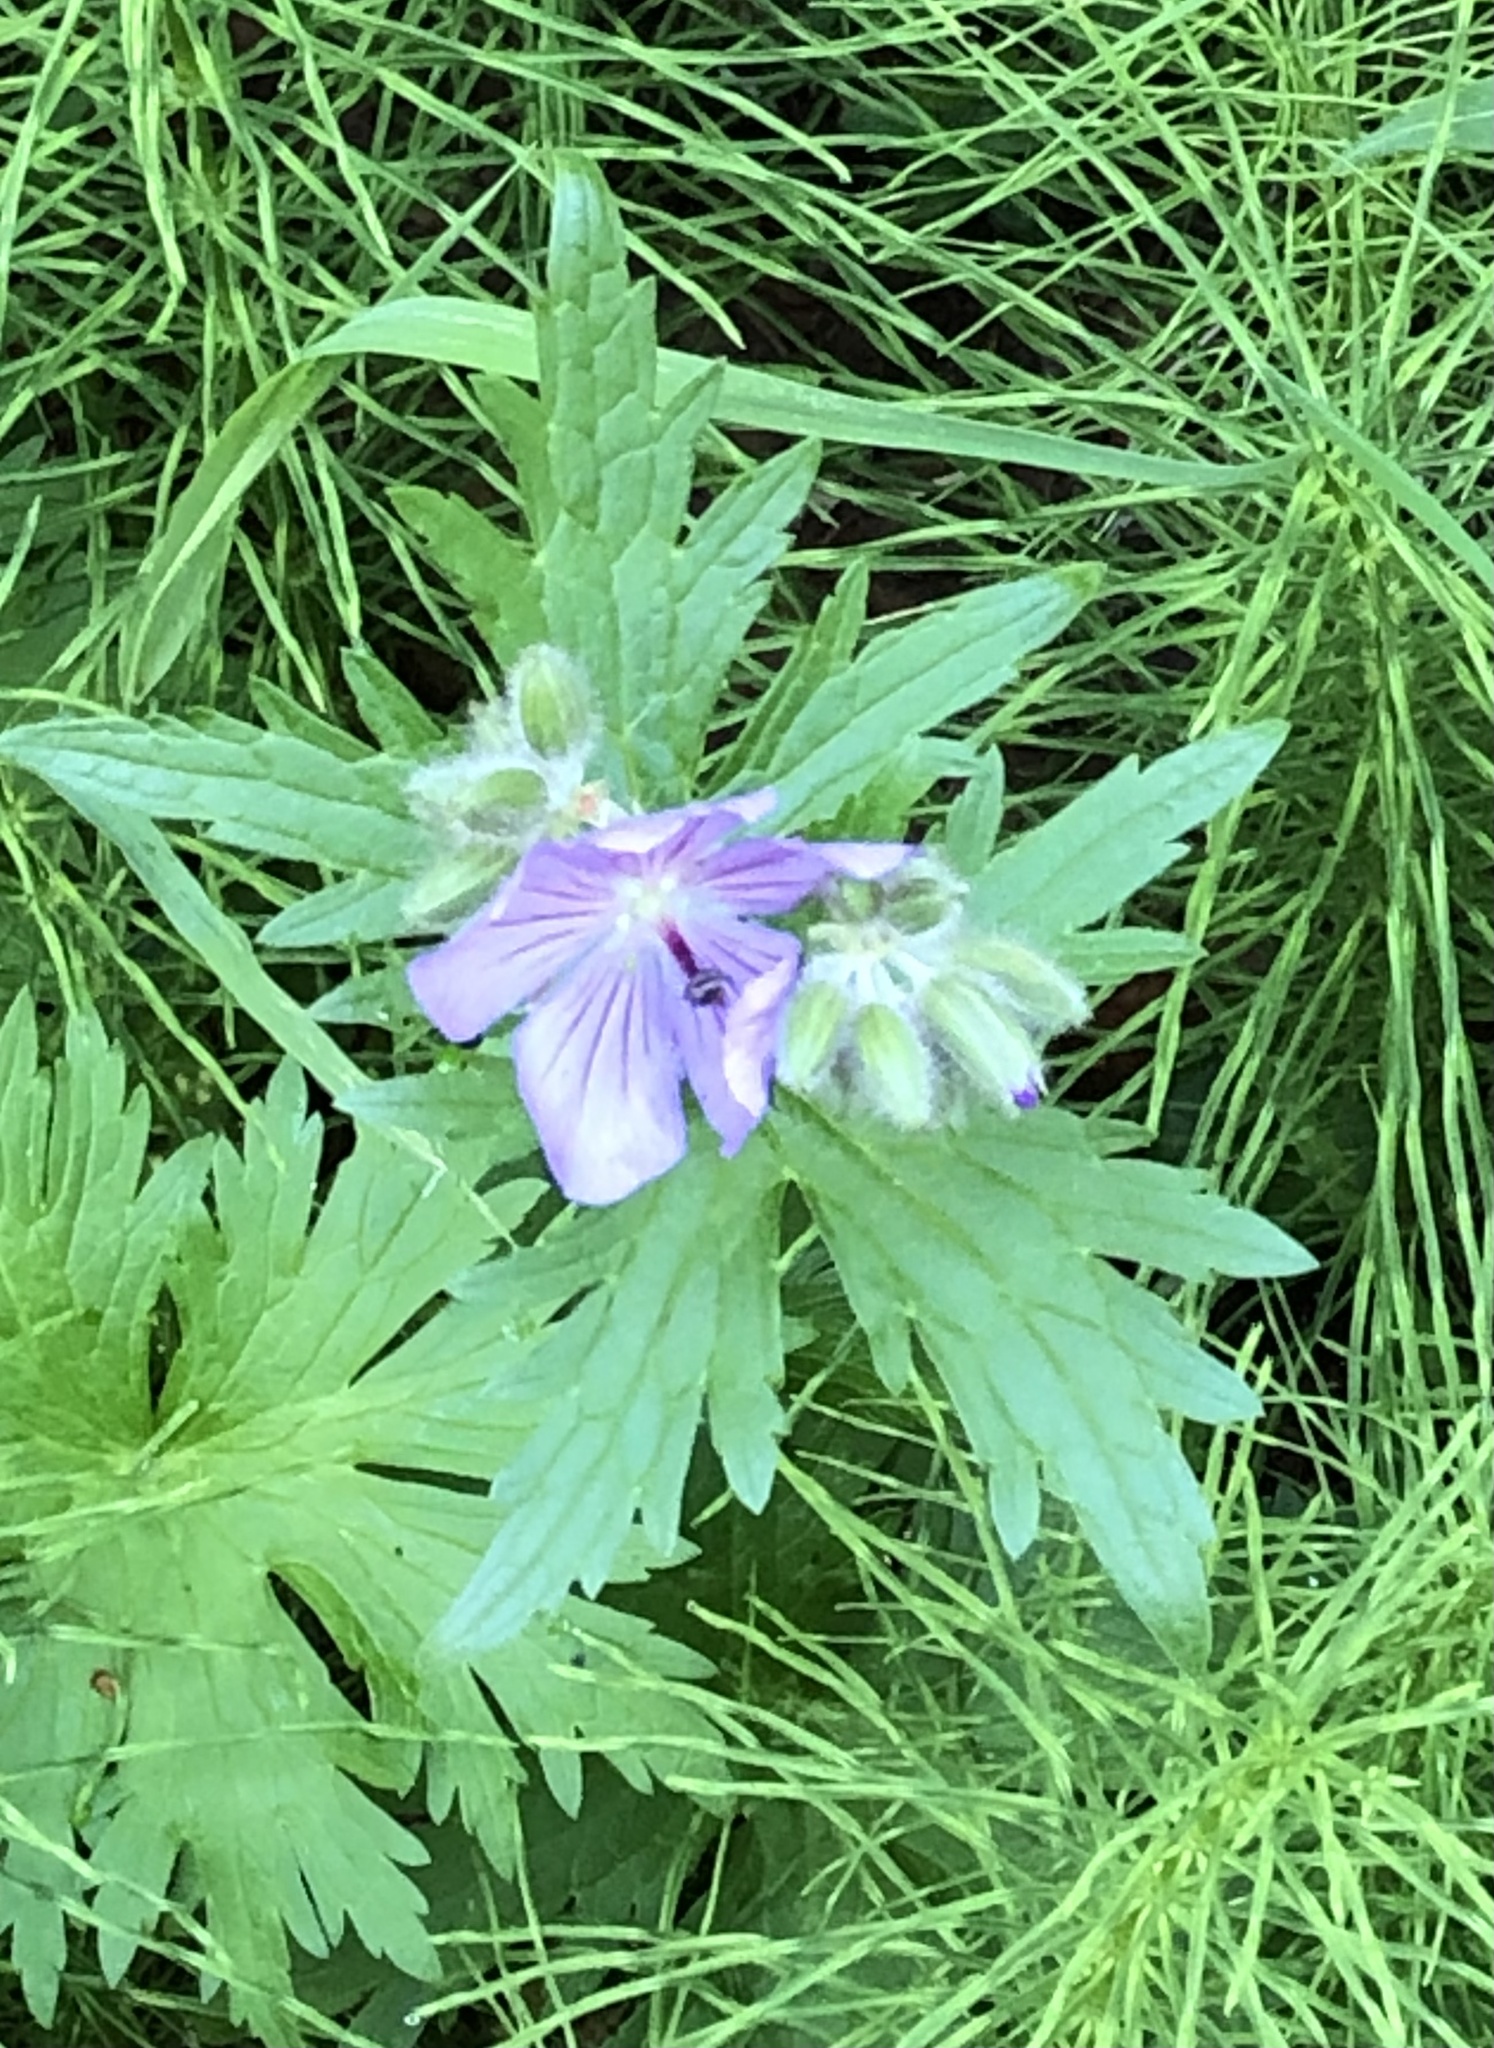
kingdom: Plantae
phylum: Tracheophyta
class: Magnoliopsida
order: Geraniales
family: Geraniaceae
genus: Geranium
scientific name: Geranium erianthum
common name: Northern crane's-bill
